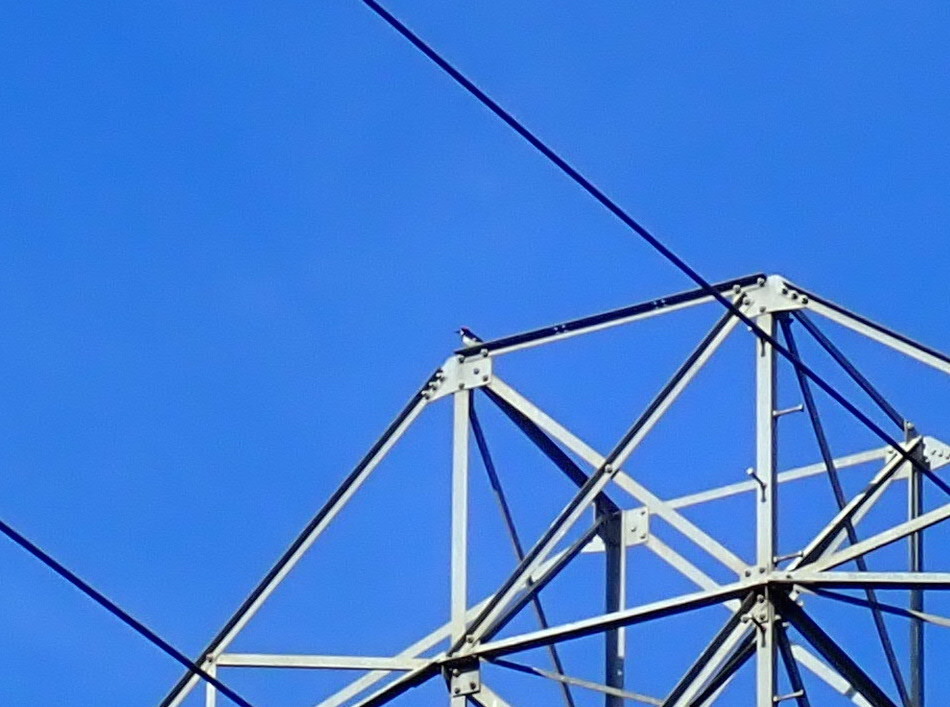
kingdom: Animalia
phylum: Chordata
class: Aves
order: Piciformes
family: Picidae
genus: Melanerpes
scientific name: Melanerpes formicivorus
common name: Acorn woodpecker
